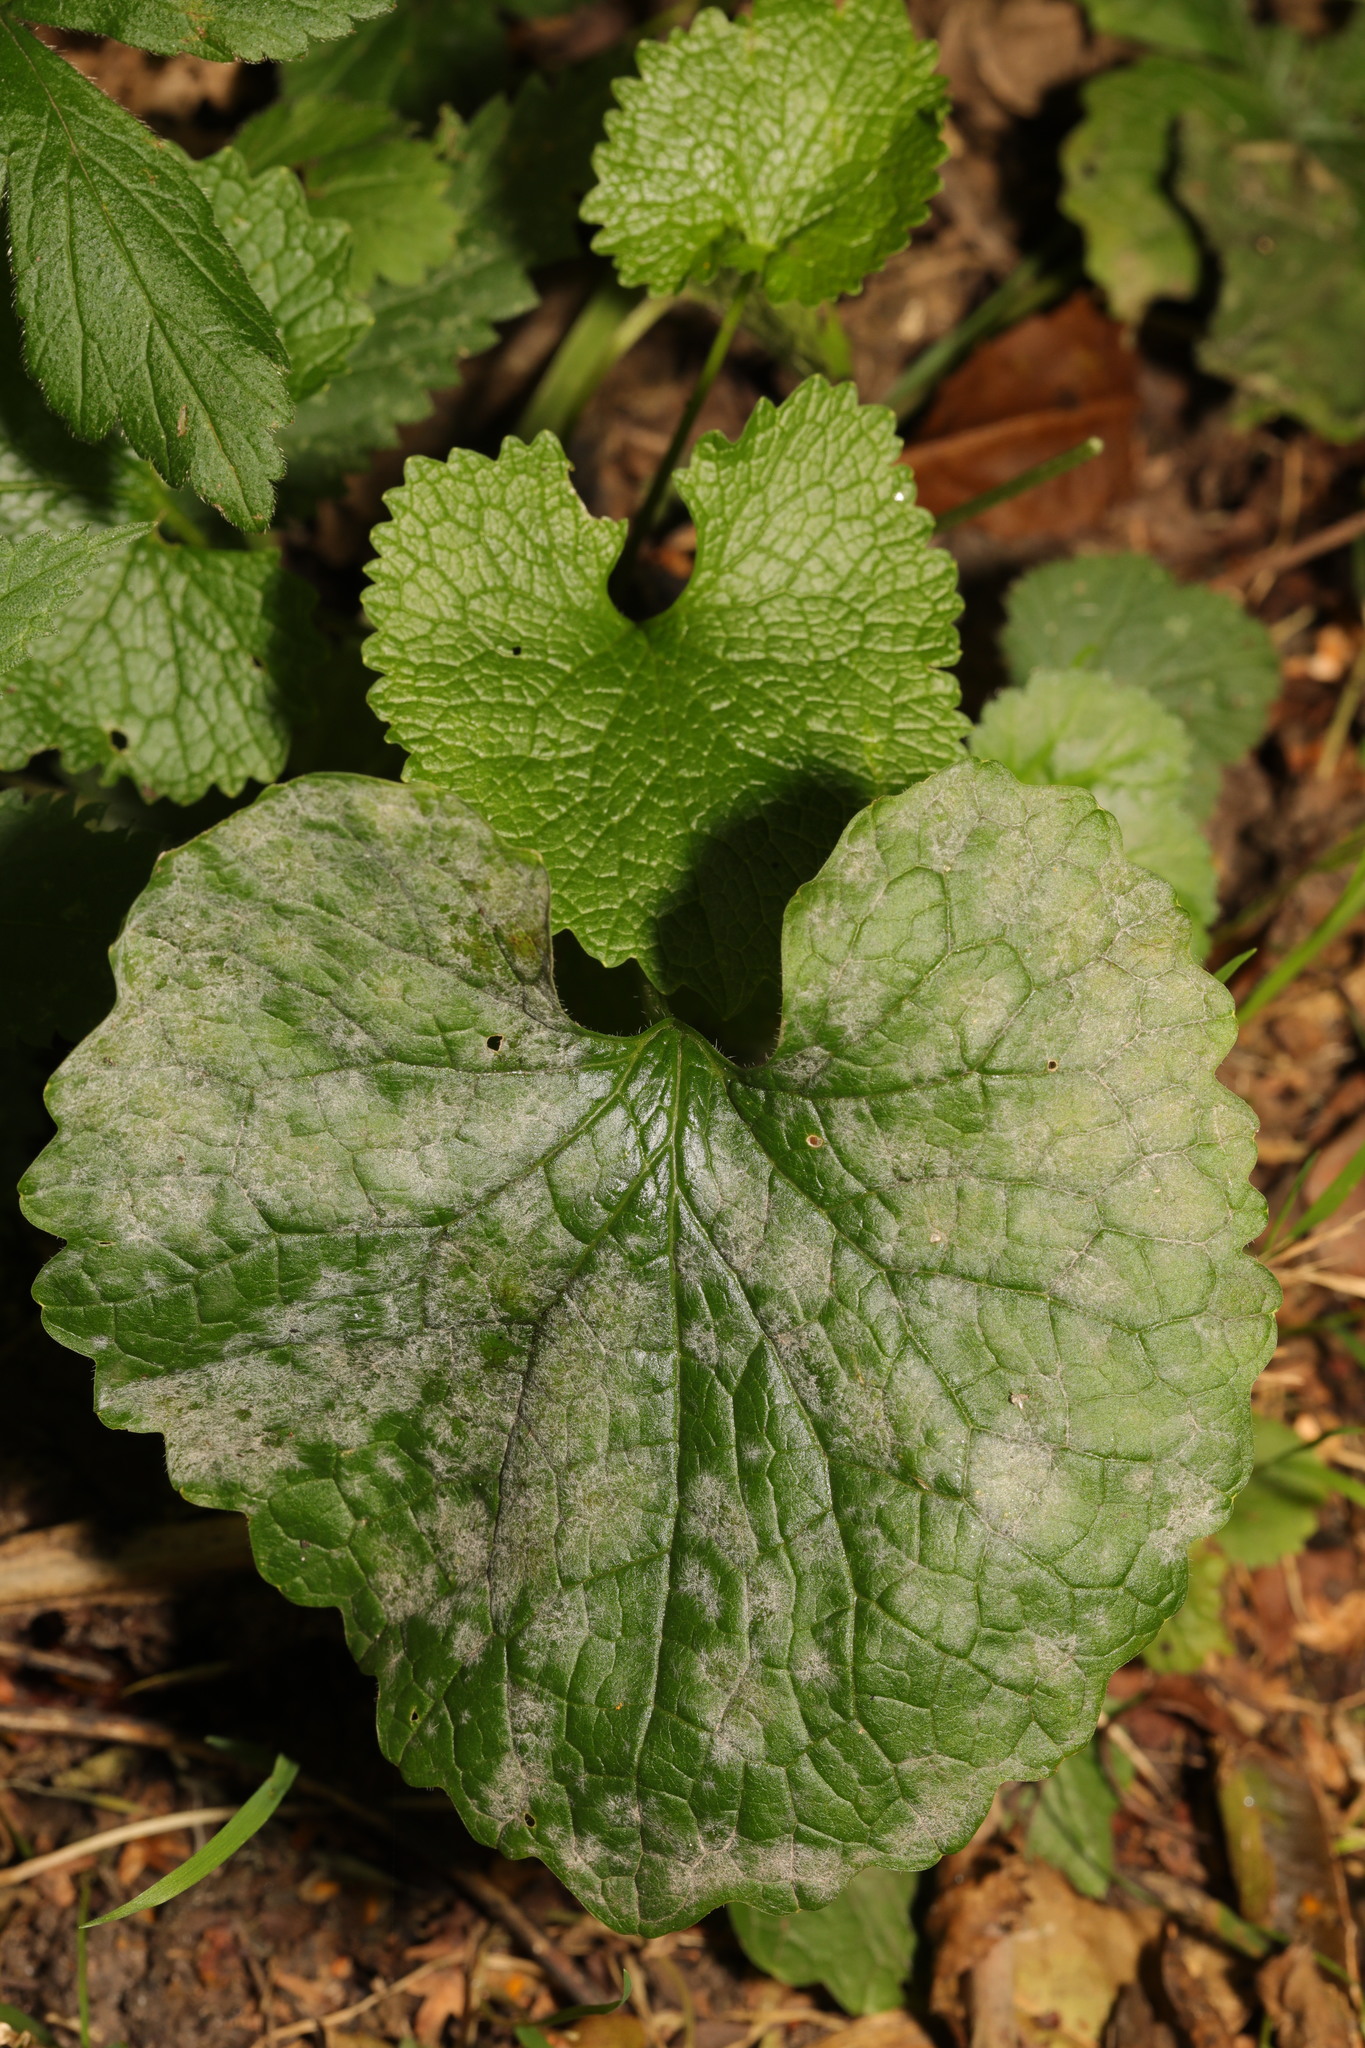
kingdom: Fungi
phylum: Ascomycota
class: Leotiomycetes
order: Helotiales
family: Erysiphaceae
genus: Erysiphe
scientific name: Erysiphe cruciferarum
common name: Brassica powdery mildew
